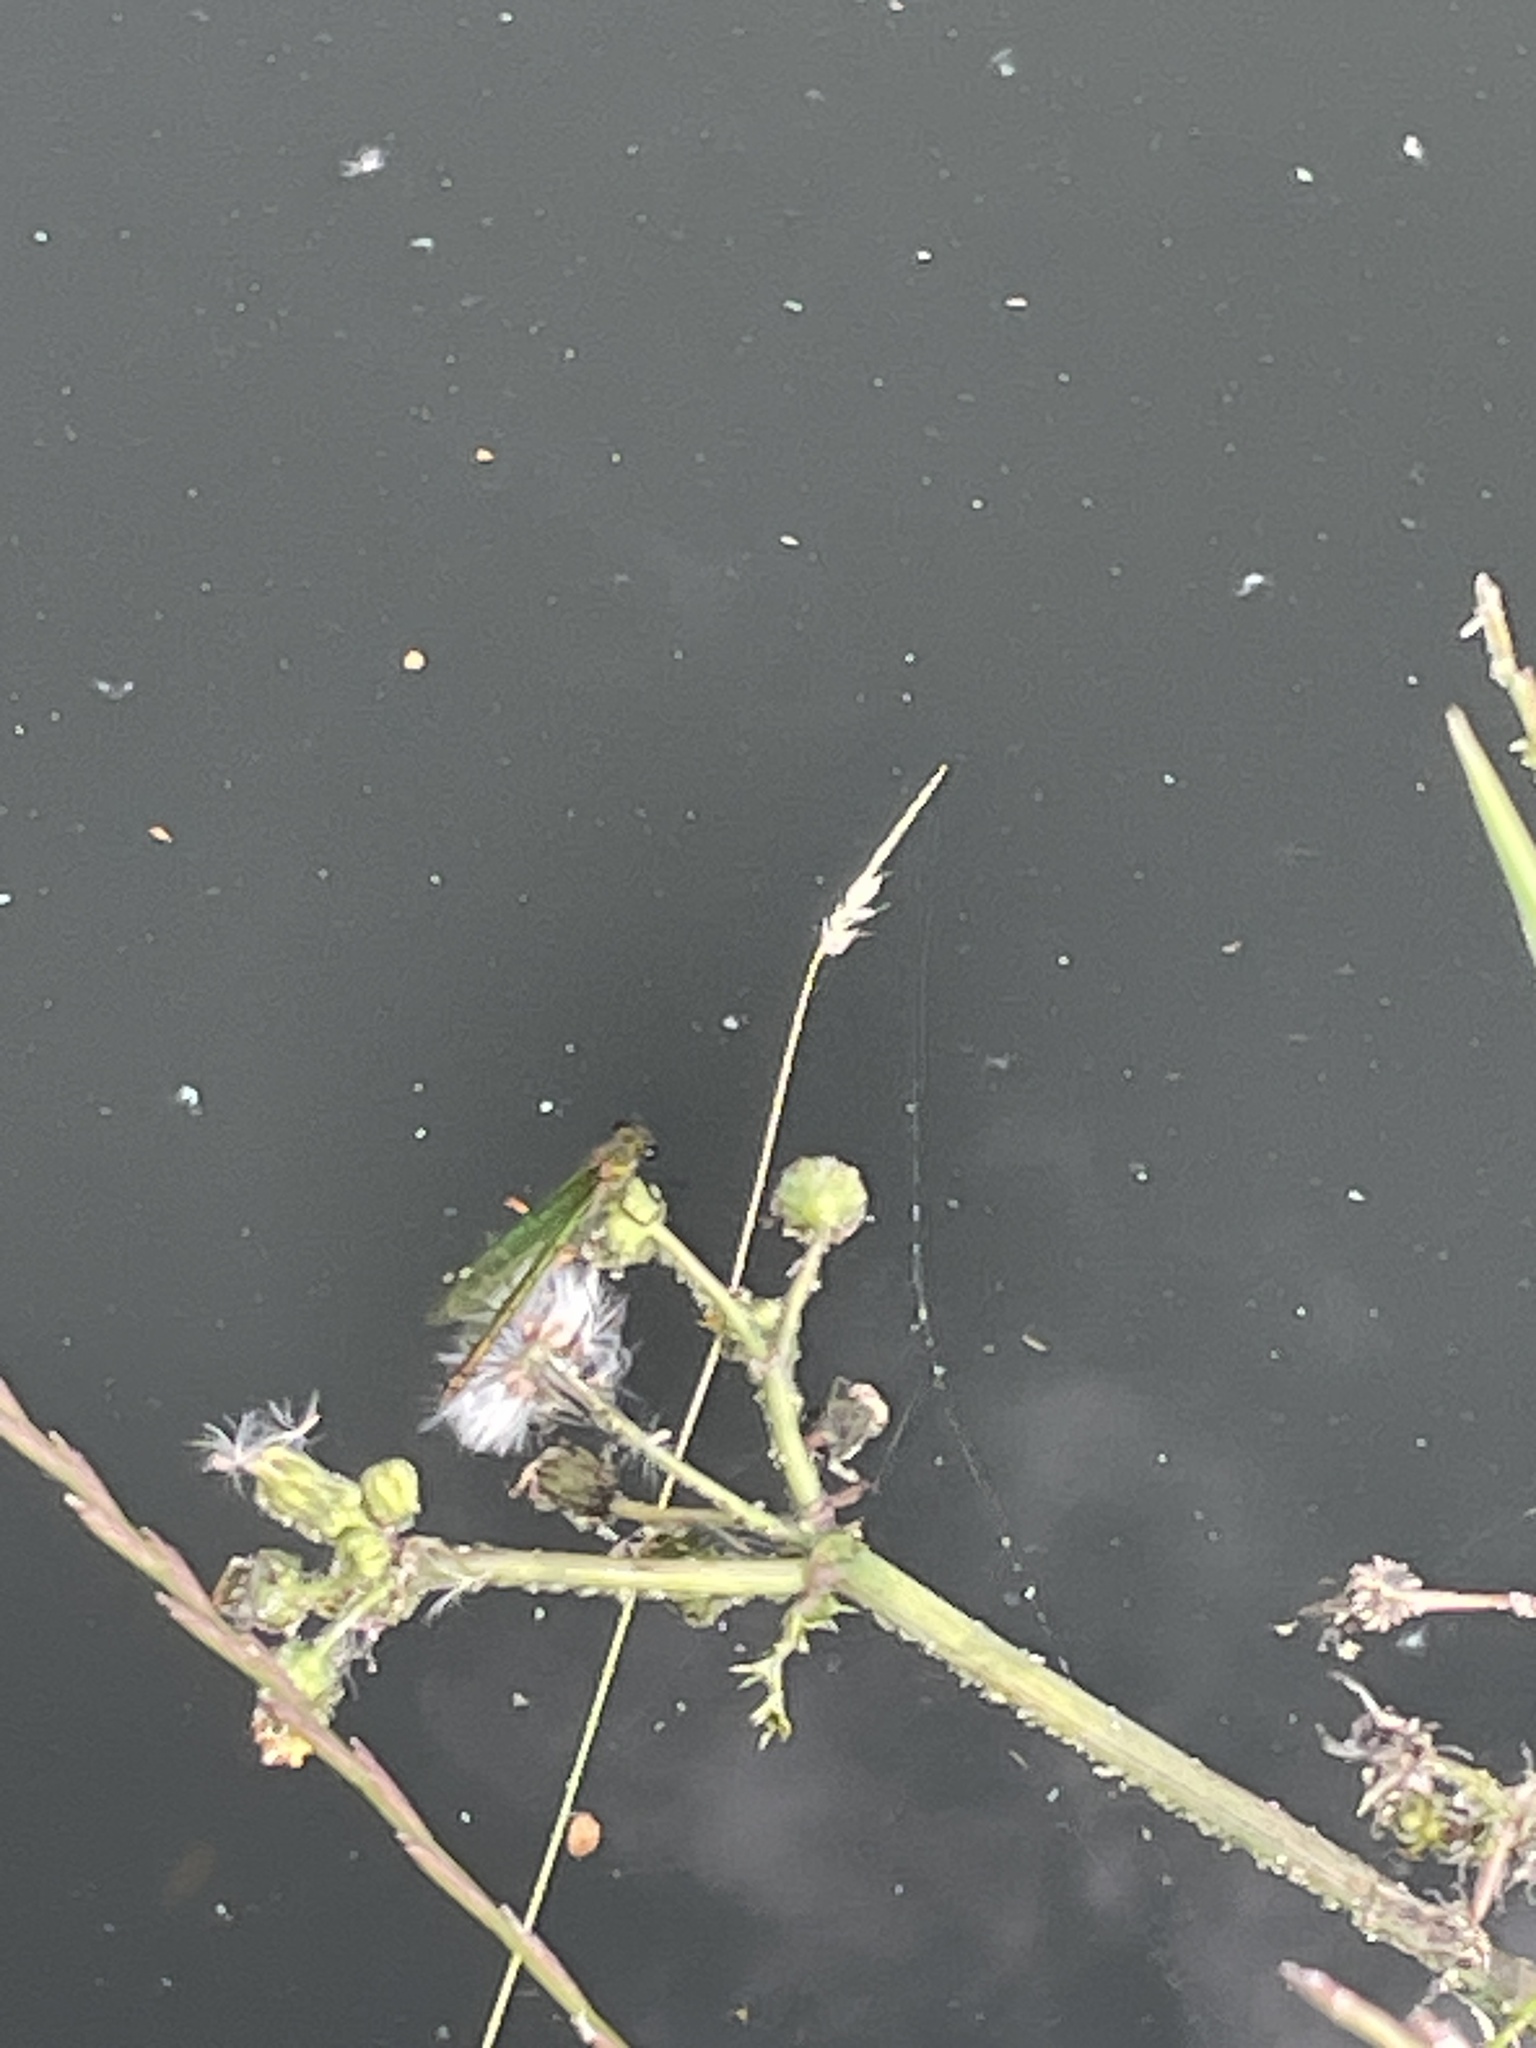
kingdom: Animalia
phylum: Arthropoda
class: Insecta
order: Odonata
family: Calopterygidae
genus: Calopteryx
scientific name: Calopteryx splendens
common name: Banded demoiselle
